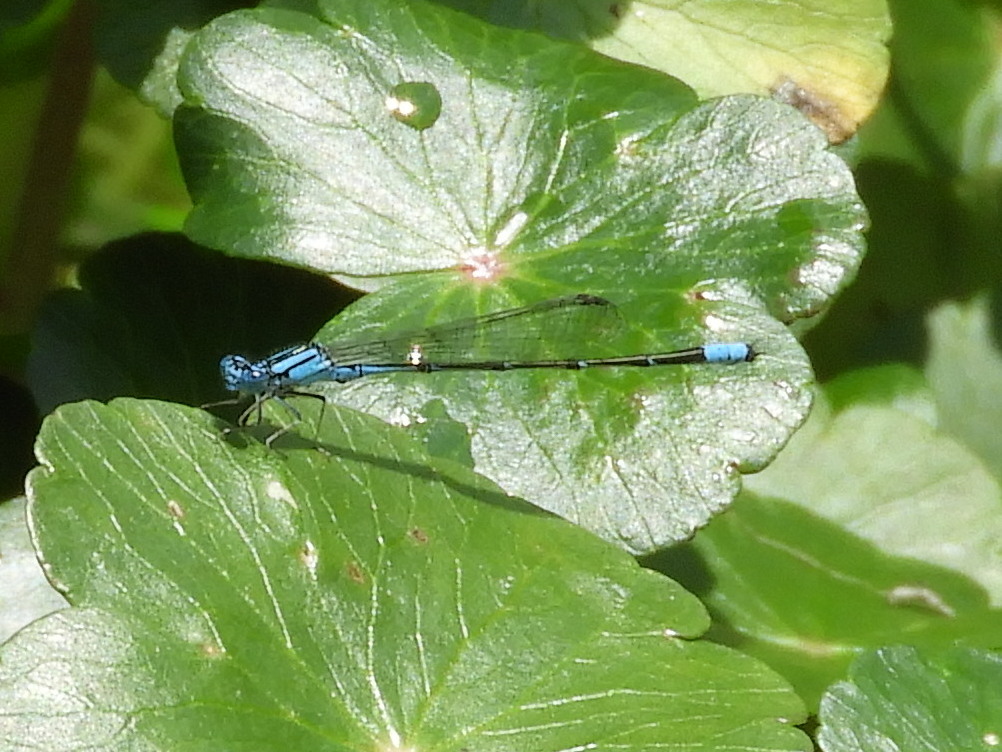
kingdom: Animalia
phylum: Arthropoda
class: Insecta
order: Odonata
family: Coenagrionidae
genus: Enallagma
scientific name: Enallagma traviatum
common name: Slender bluet
